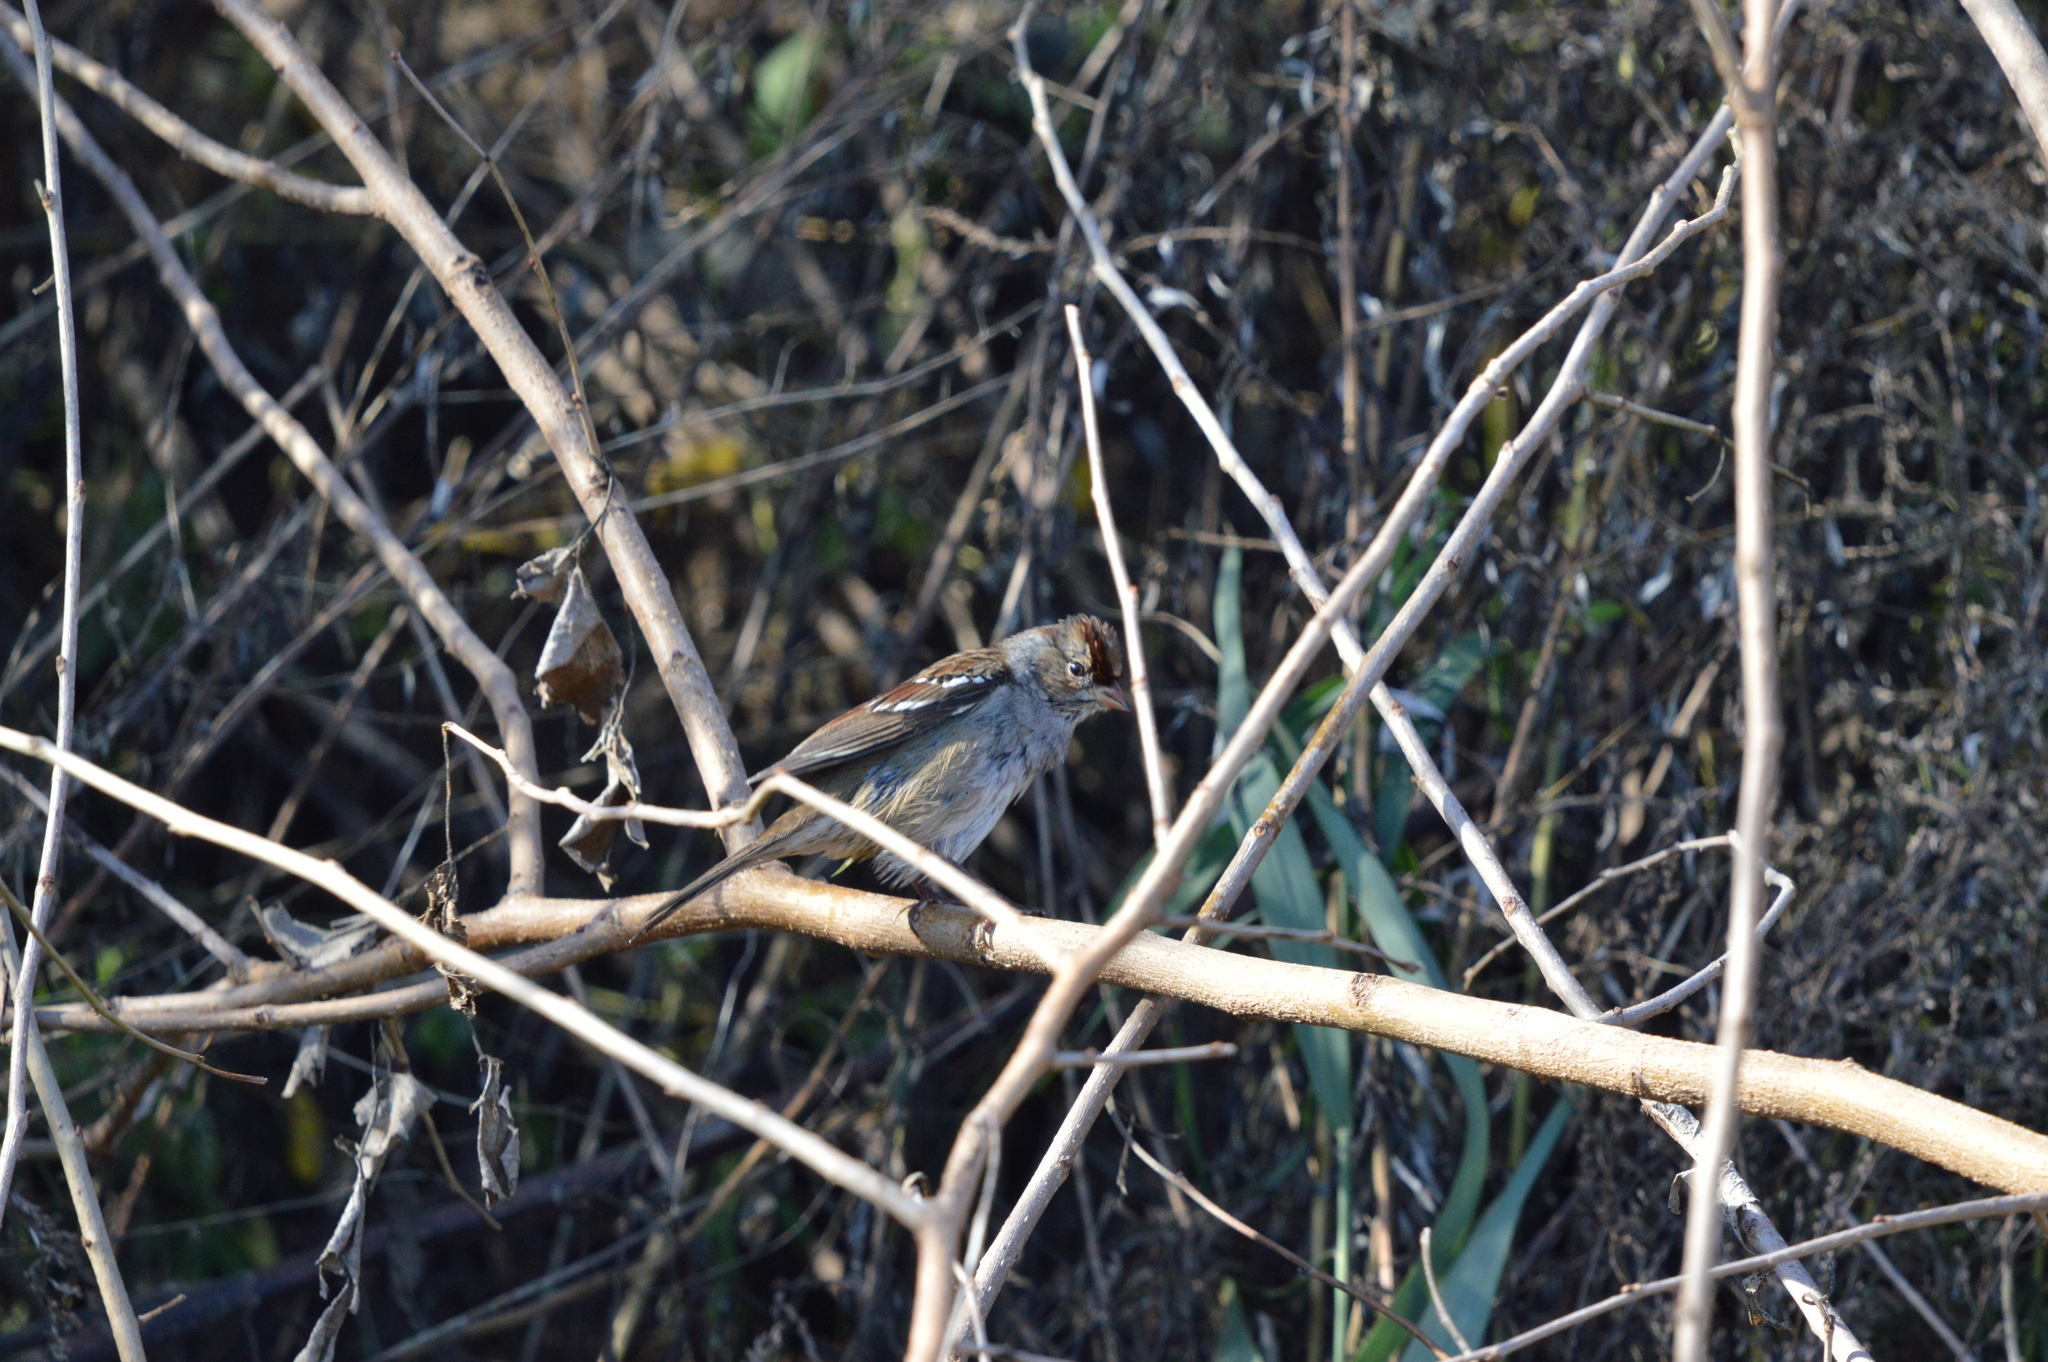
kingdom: Animalia
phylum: Chordata
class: Aves
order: Passeriformes
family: Passerellidae
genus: Zonotrichia
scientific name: Zonotrichia leucophrys
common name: White-crowned sparrow
